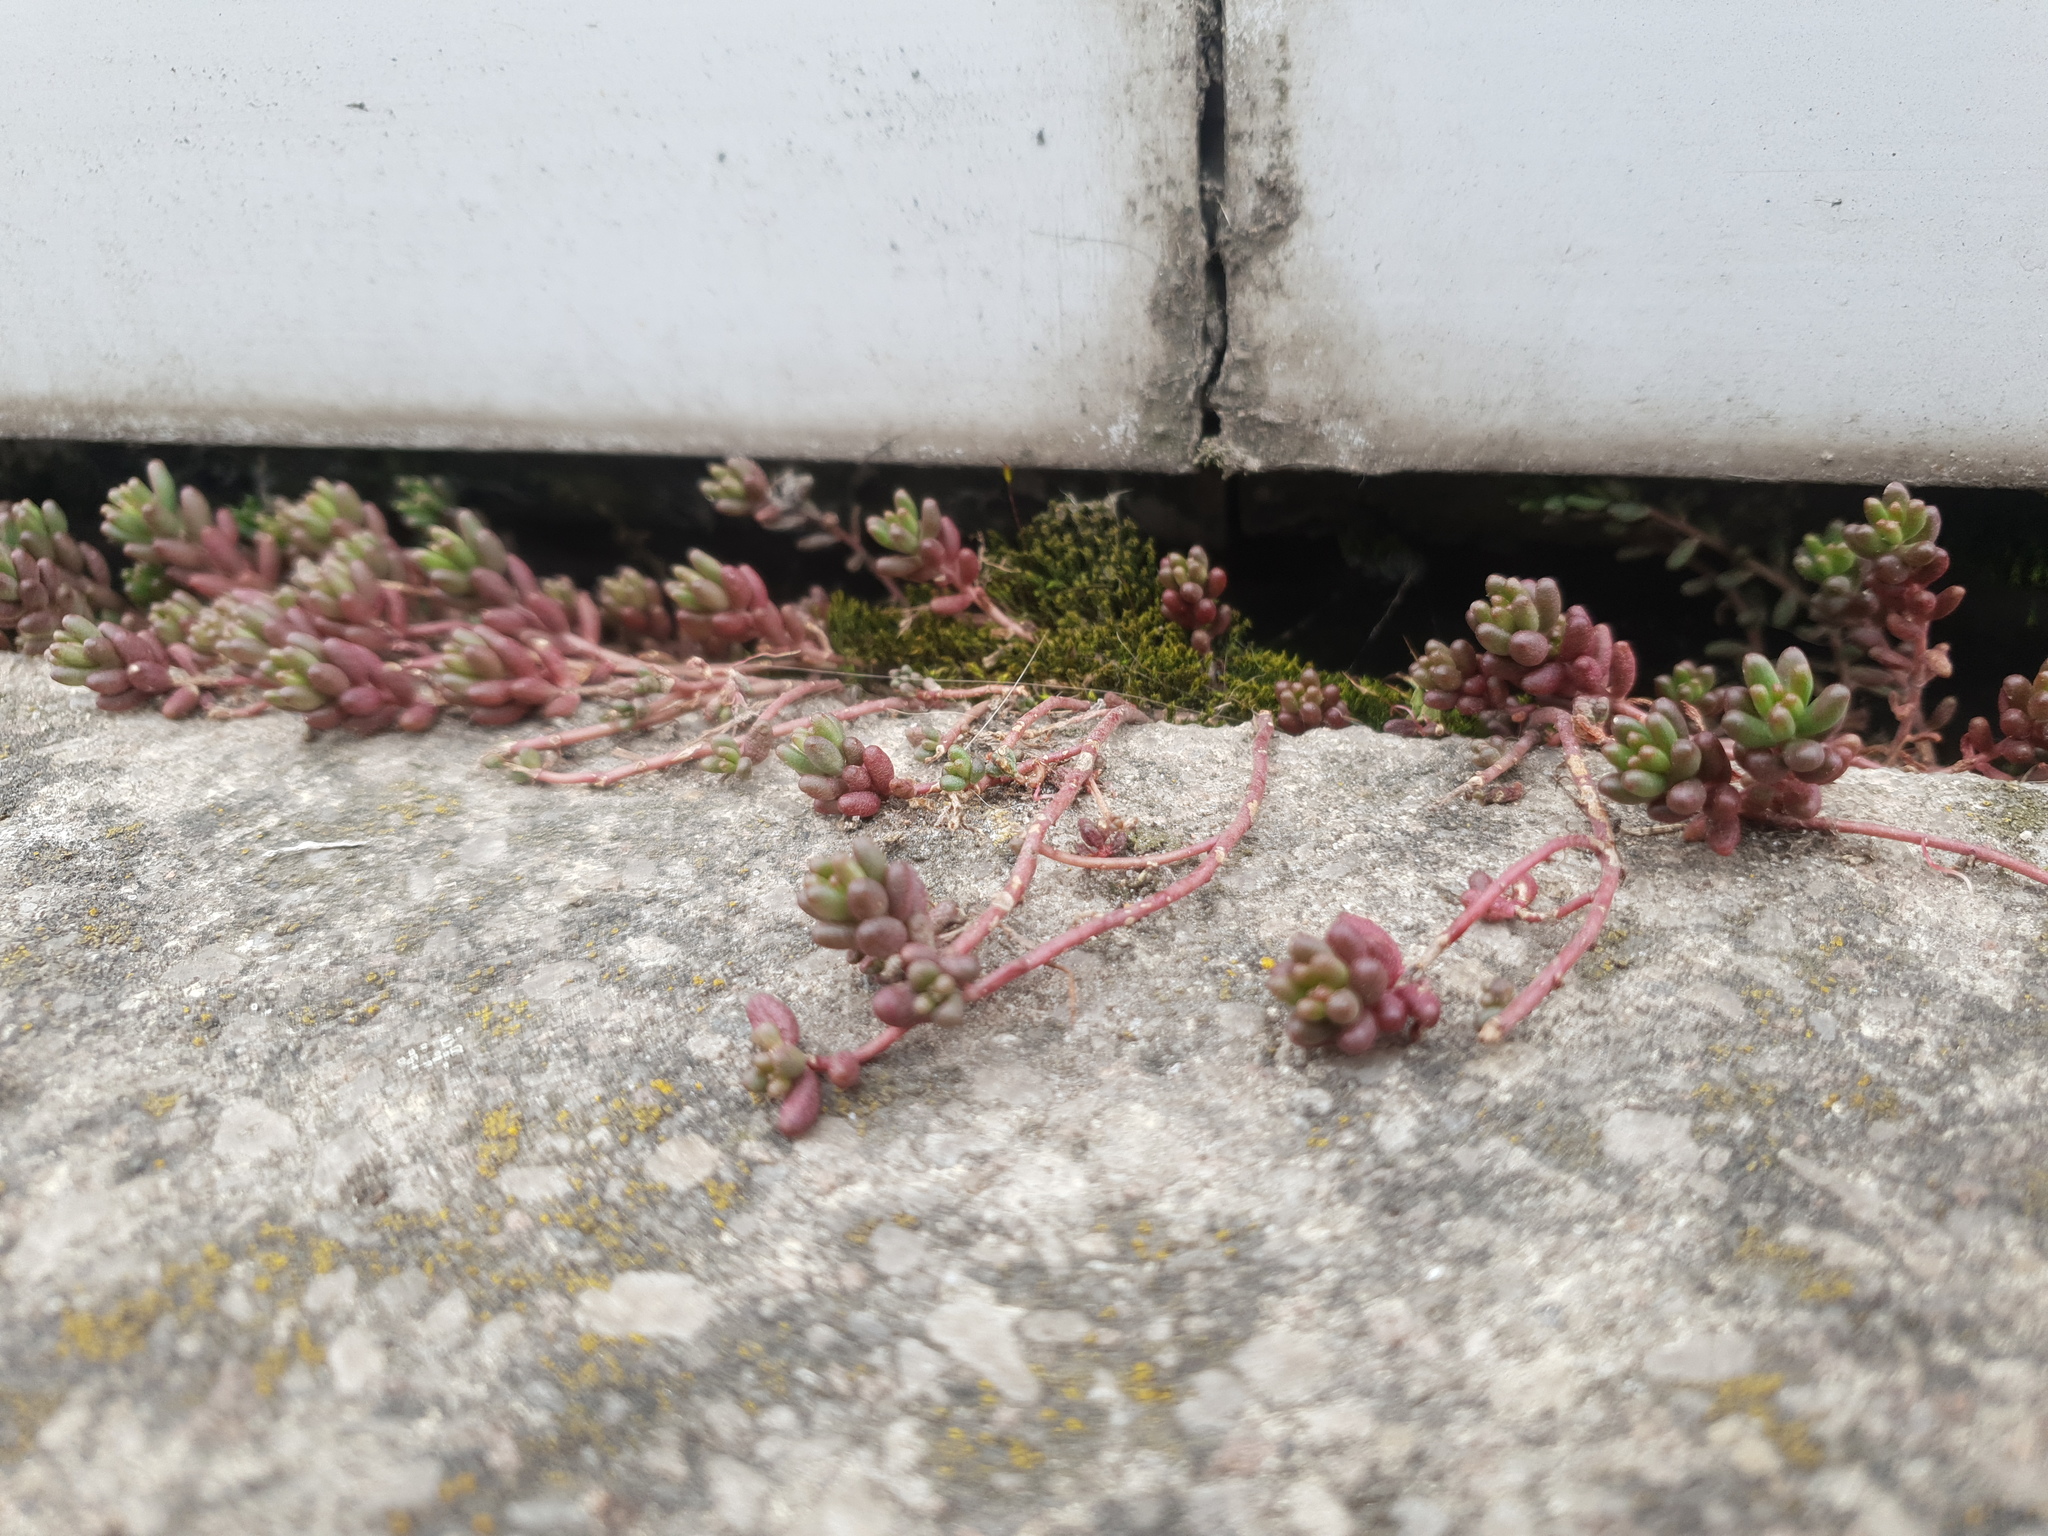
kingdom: Plantae
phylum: Tracheophyta
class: Magnoliopsida
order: Saxifragales
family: Crassulaceae
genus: Sedum
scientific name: Sedum album
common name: White stonecrop
